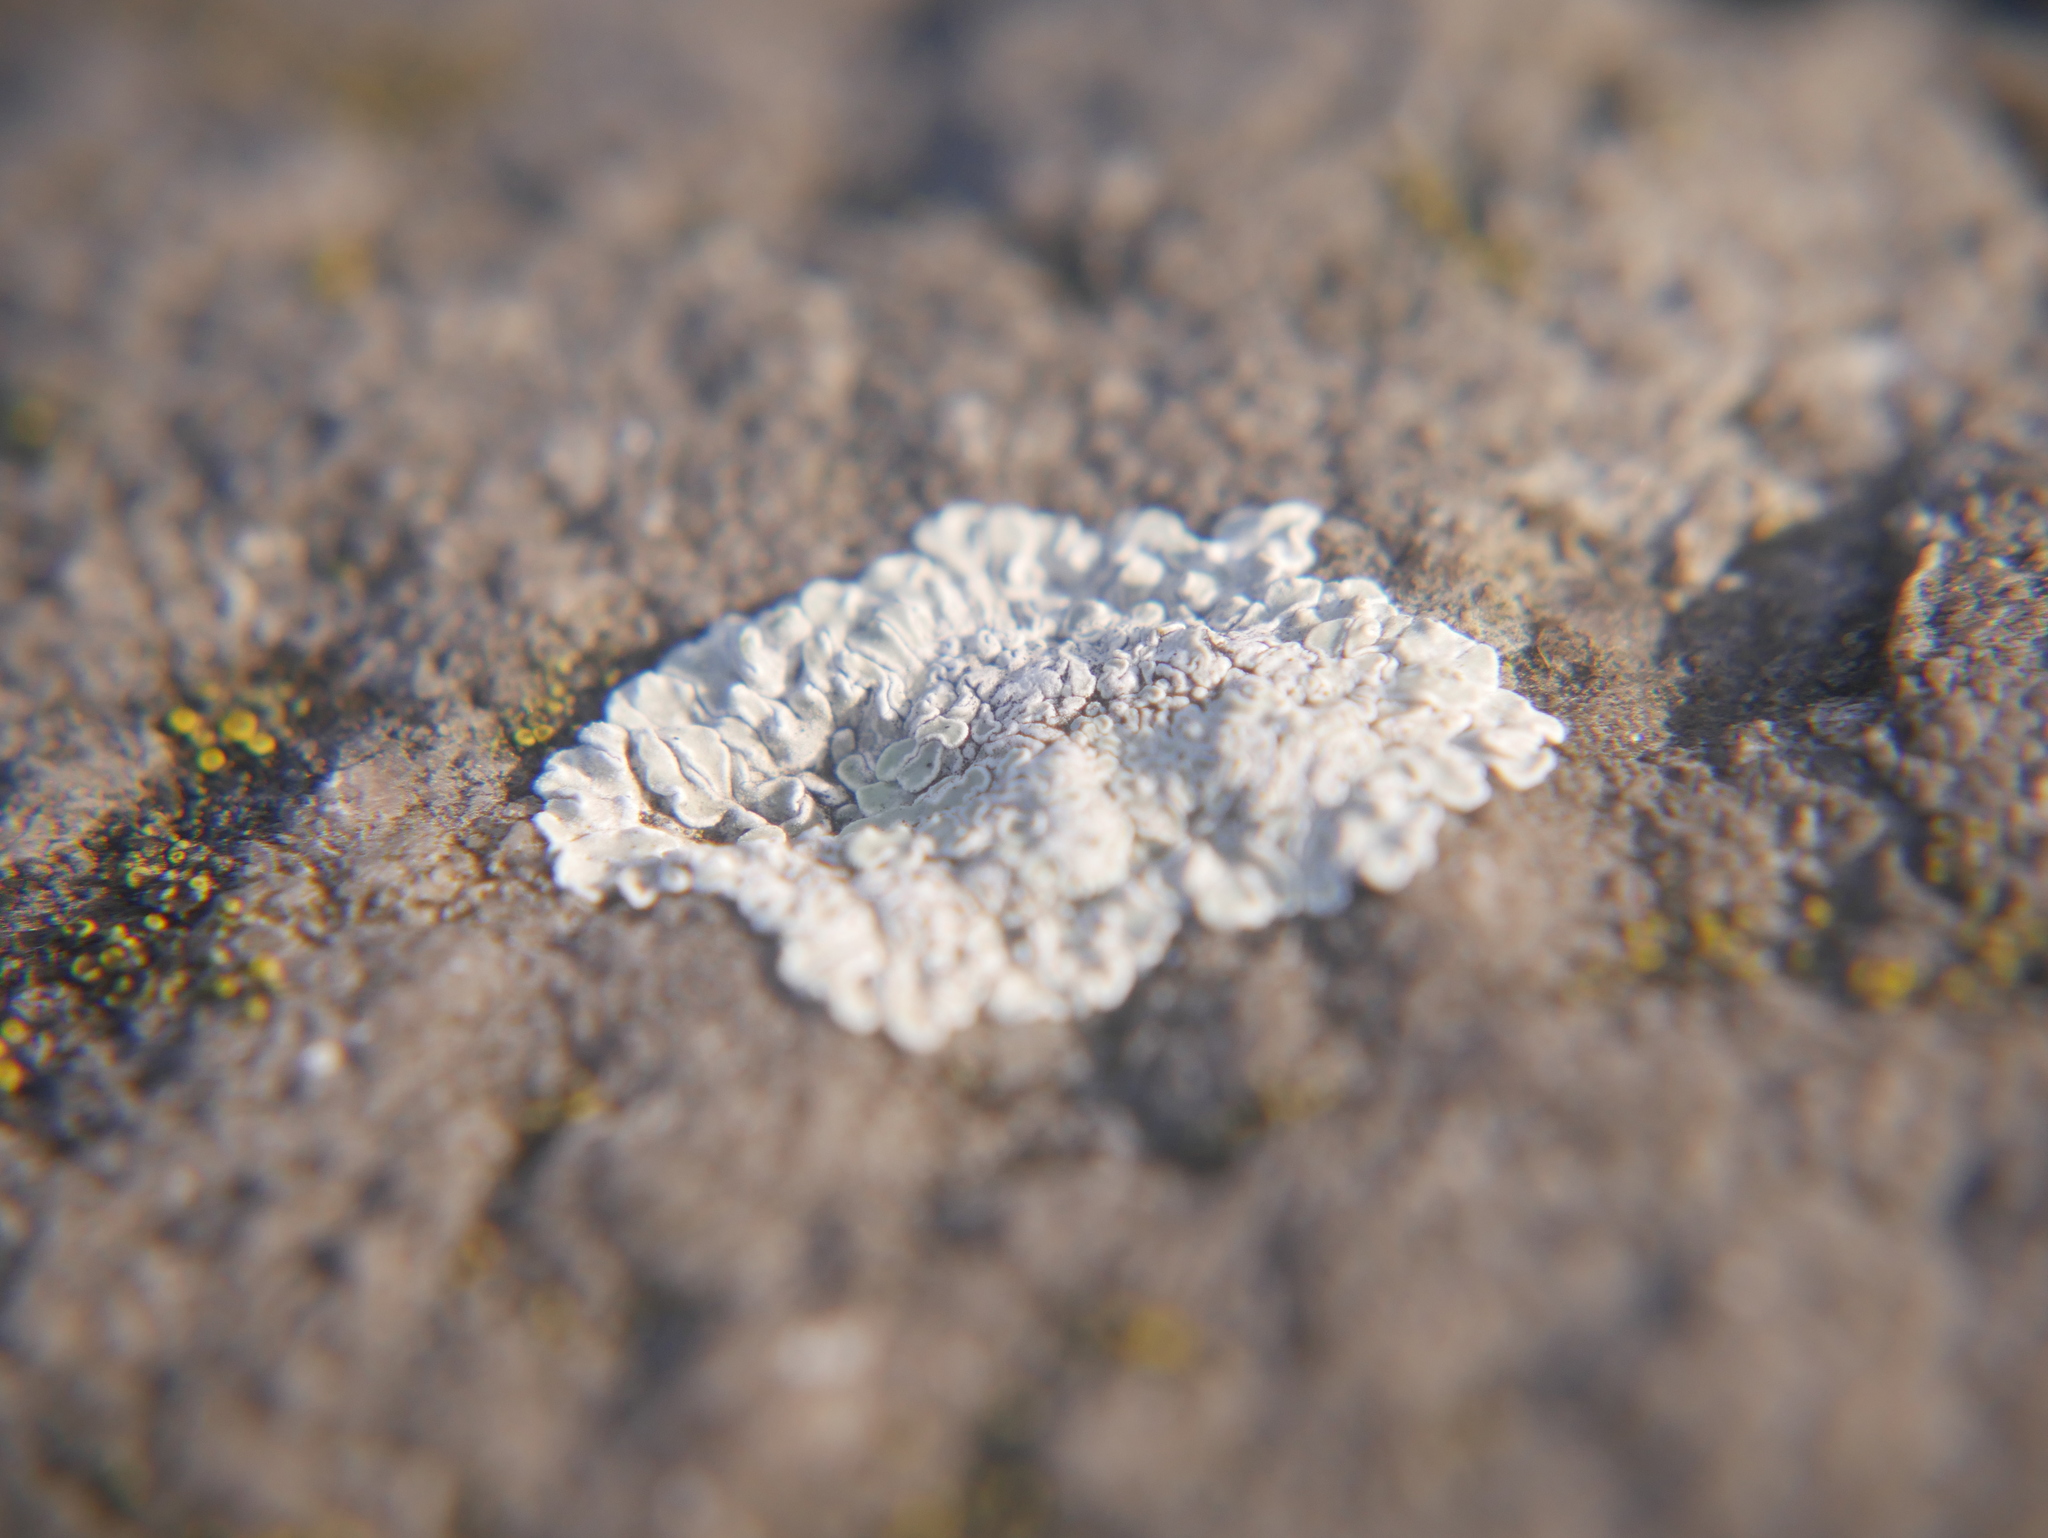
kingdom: Fungi
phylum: Ascomycota
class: Lecanoromycetes
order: Lecanorales
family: Lecanoraceae
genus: Protoparmeliopsis
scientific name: Protoparmeliopsis muralis
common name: Stonewall rim lichen
